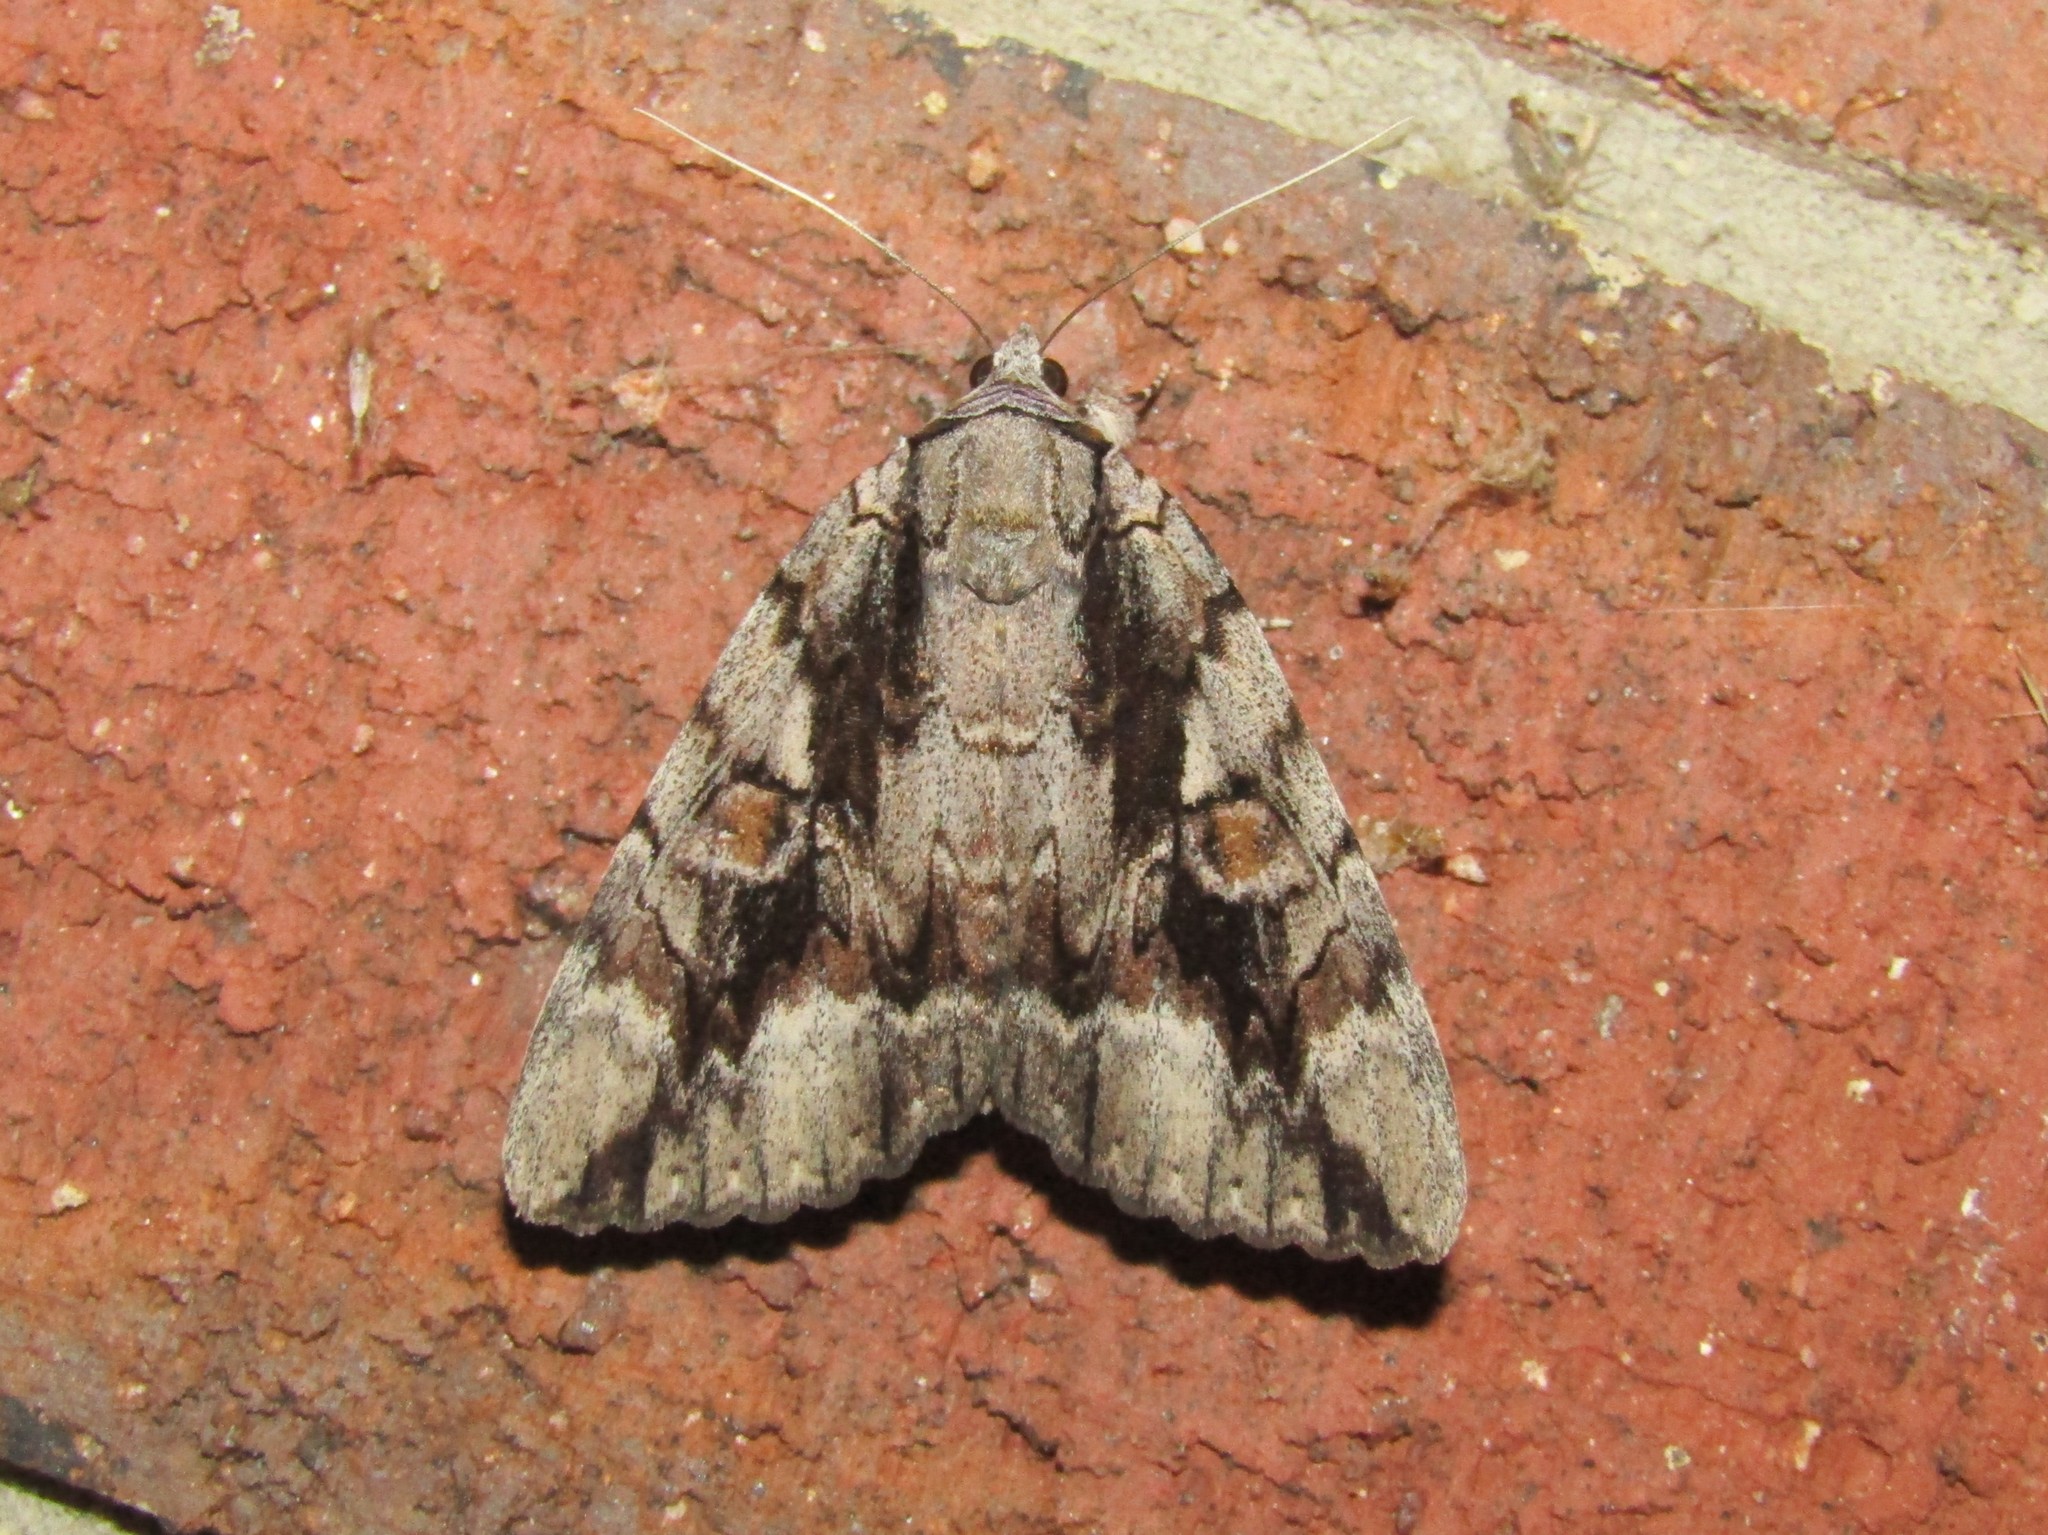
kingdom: Animalia
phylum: Arthropoda
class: Insecta
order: Lepidoptera
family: Erebidae
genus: Catocala
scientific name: Catocala flebilis
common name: Mournful underwing
